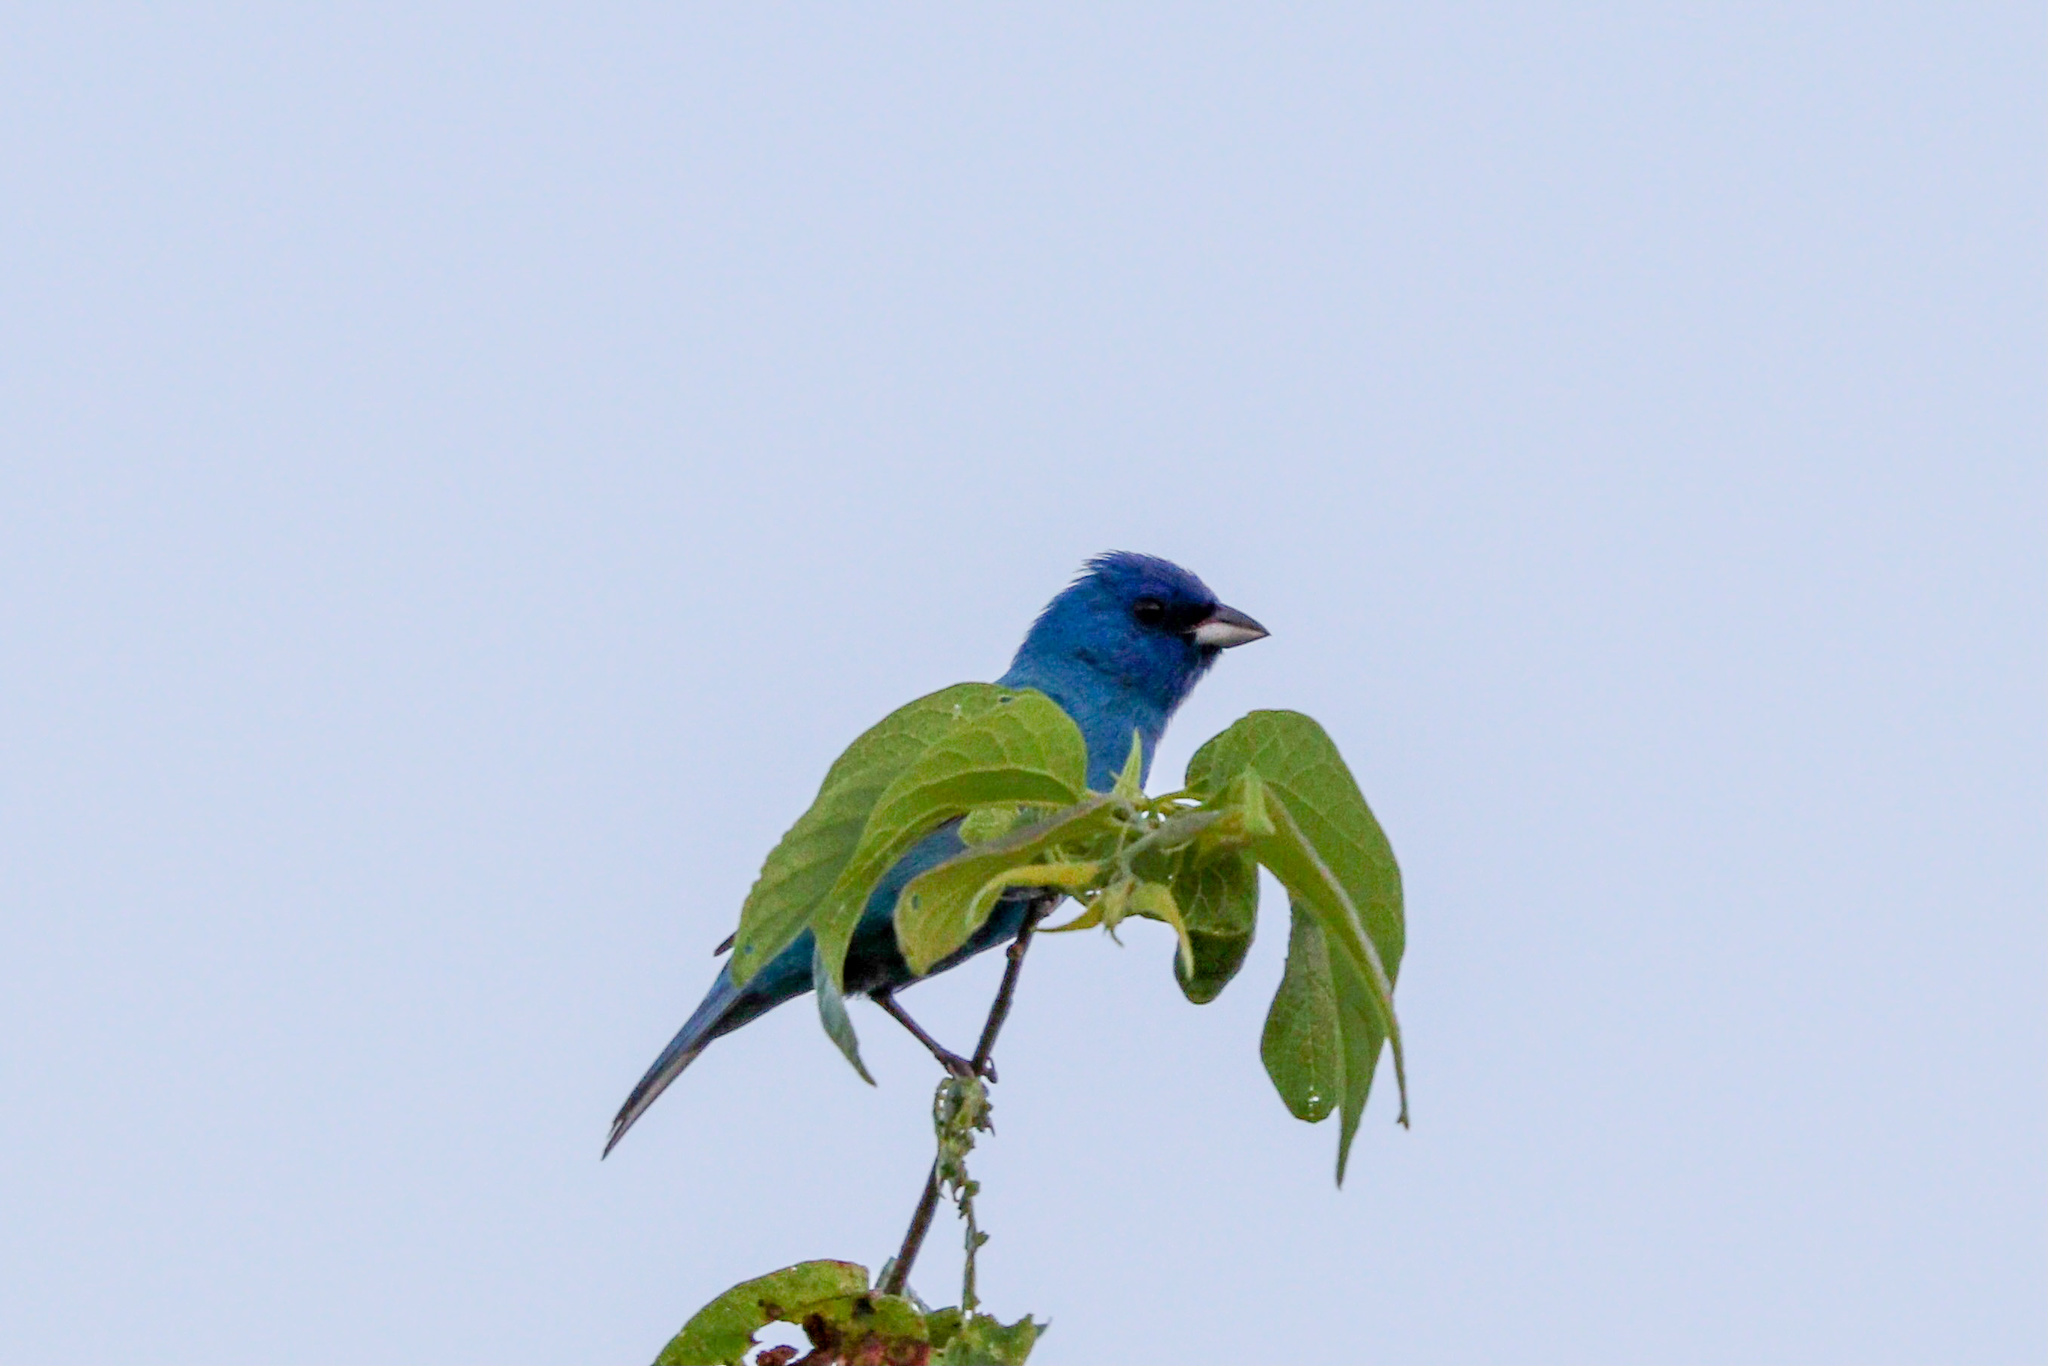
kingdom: Animalia
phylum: Chordata
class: Aves
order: Passeriformes
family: Cardinalidae
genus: Passerina
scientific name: Passerina cyanea
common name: Indigo bunting
